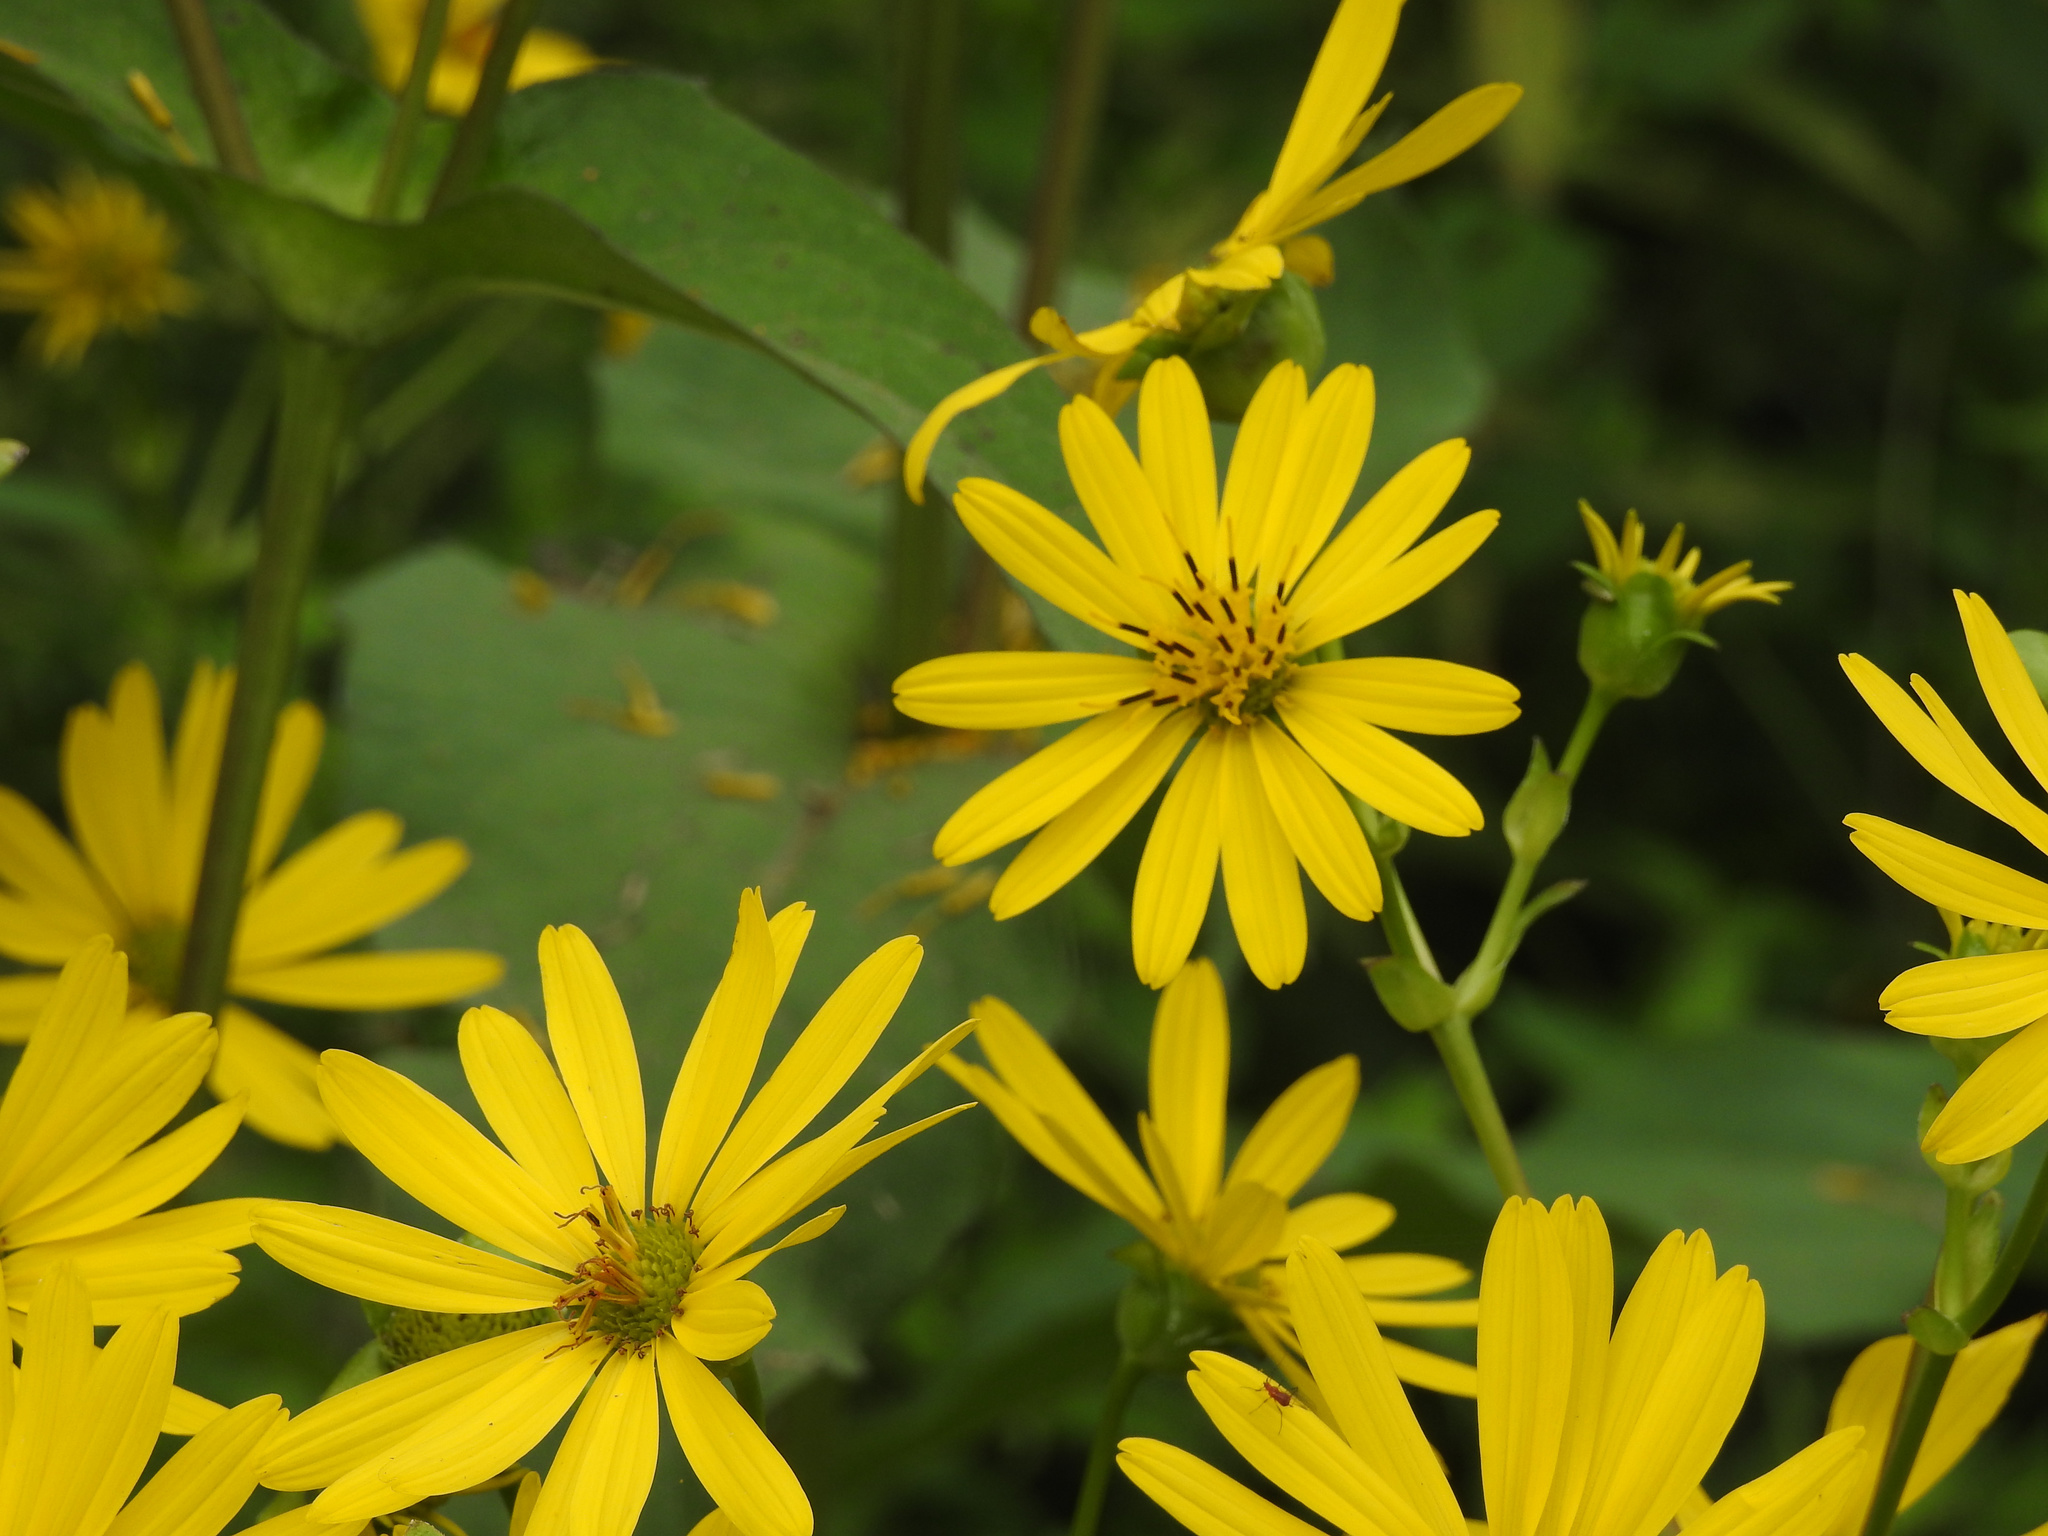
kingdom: Plantae
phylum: Tracheophyta
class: Magnoliopsida
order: Asterales
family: Asteraceae
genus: Silphium
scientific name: Silphium perfoliatum
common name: Cup-plant
